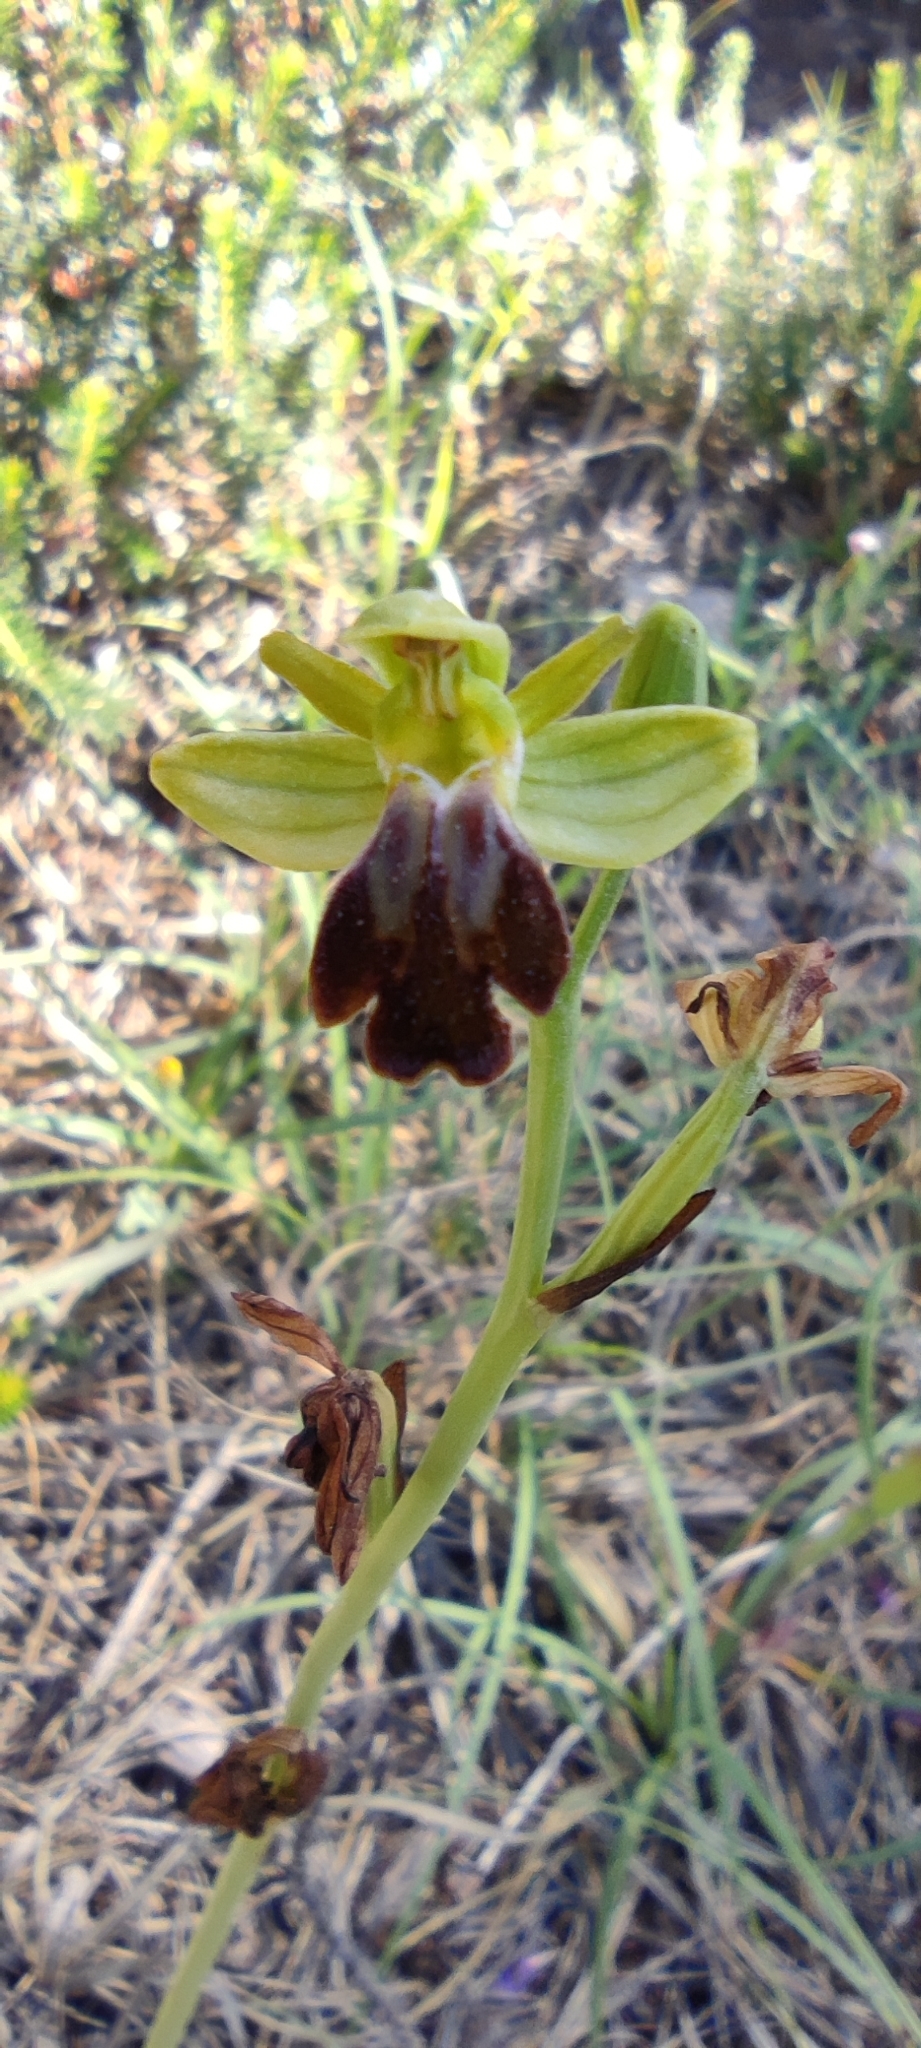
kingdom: Plantae
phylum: Tracheophyta
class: Liliopsida
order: Asparagales
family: Orchidaceae
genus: Ophrys
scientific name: Ophrys fusca
